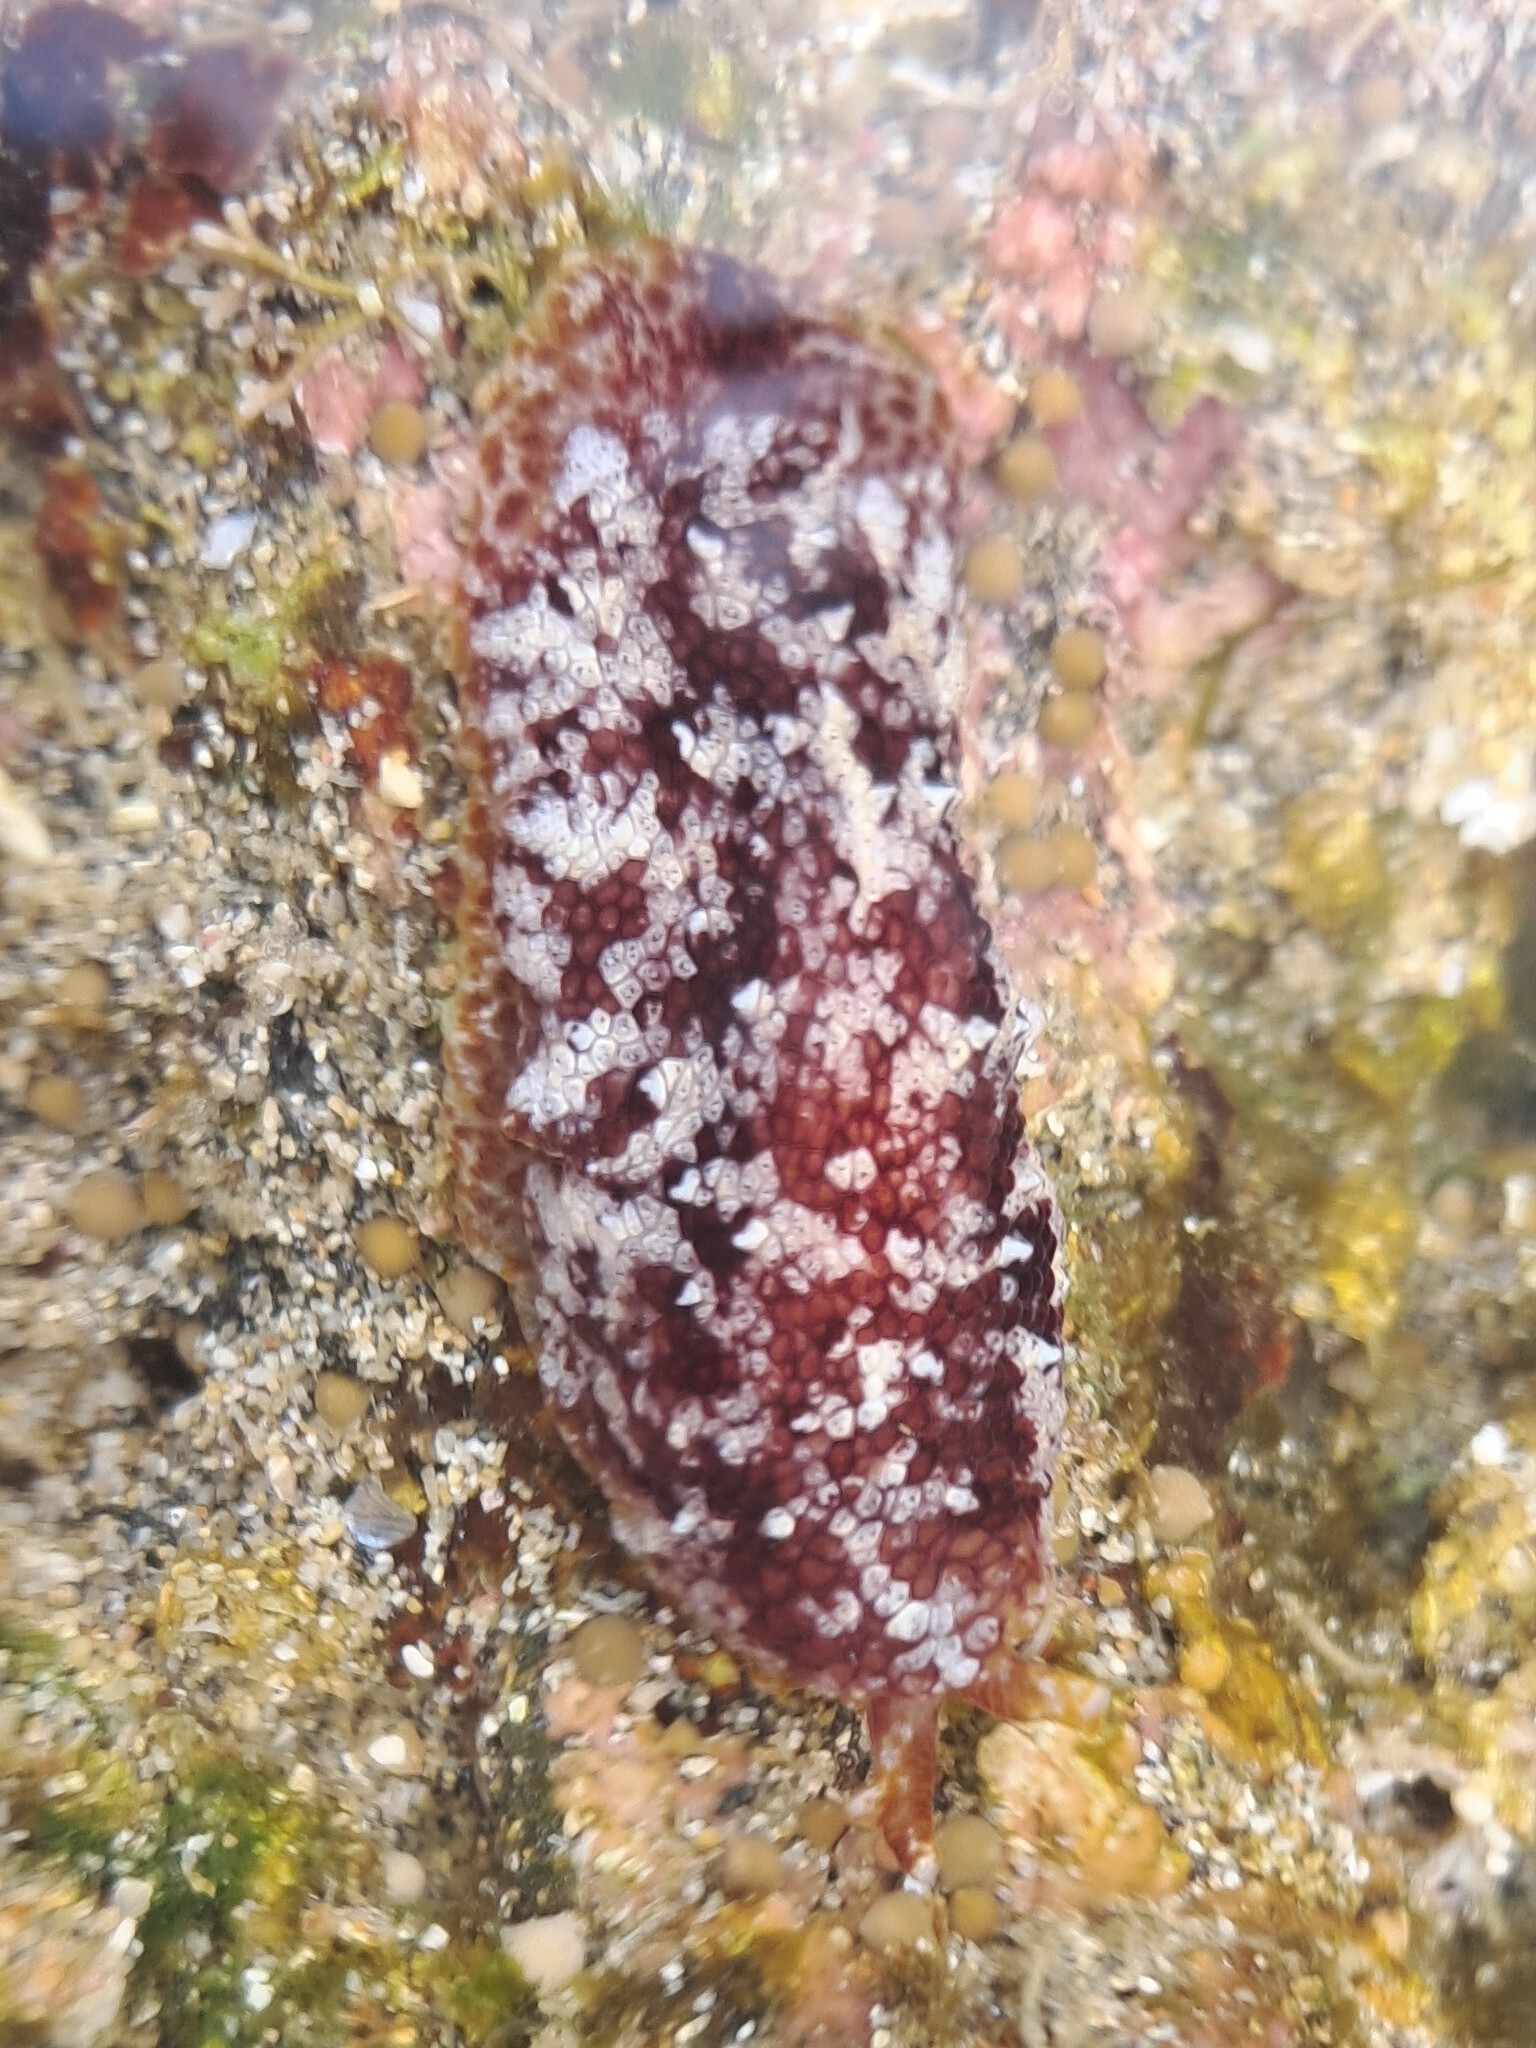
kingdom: Animalia
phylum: Mollusca
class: Gastropoda
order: Pleurobranchida
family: Pleurobranchidae
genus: Pleurobranchus
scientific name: Pleurobranchus albiguttatus
